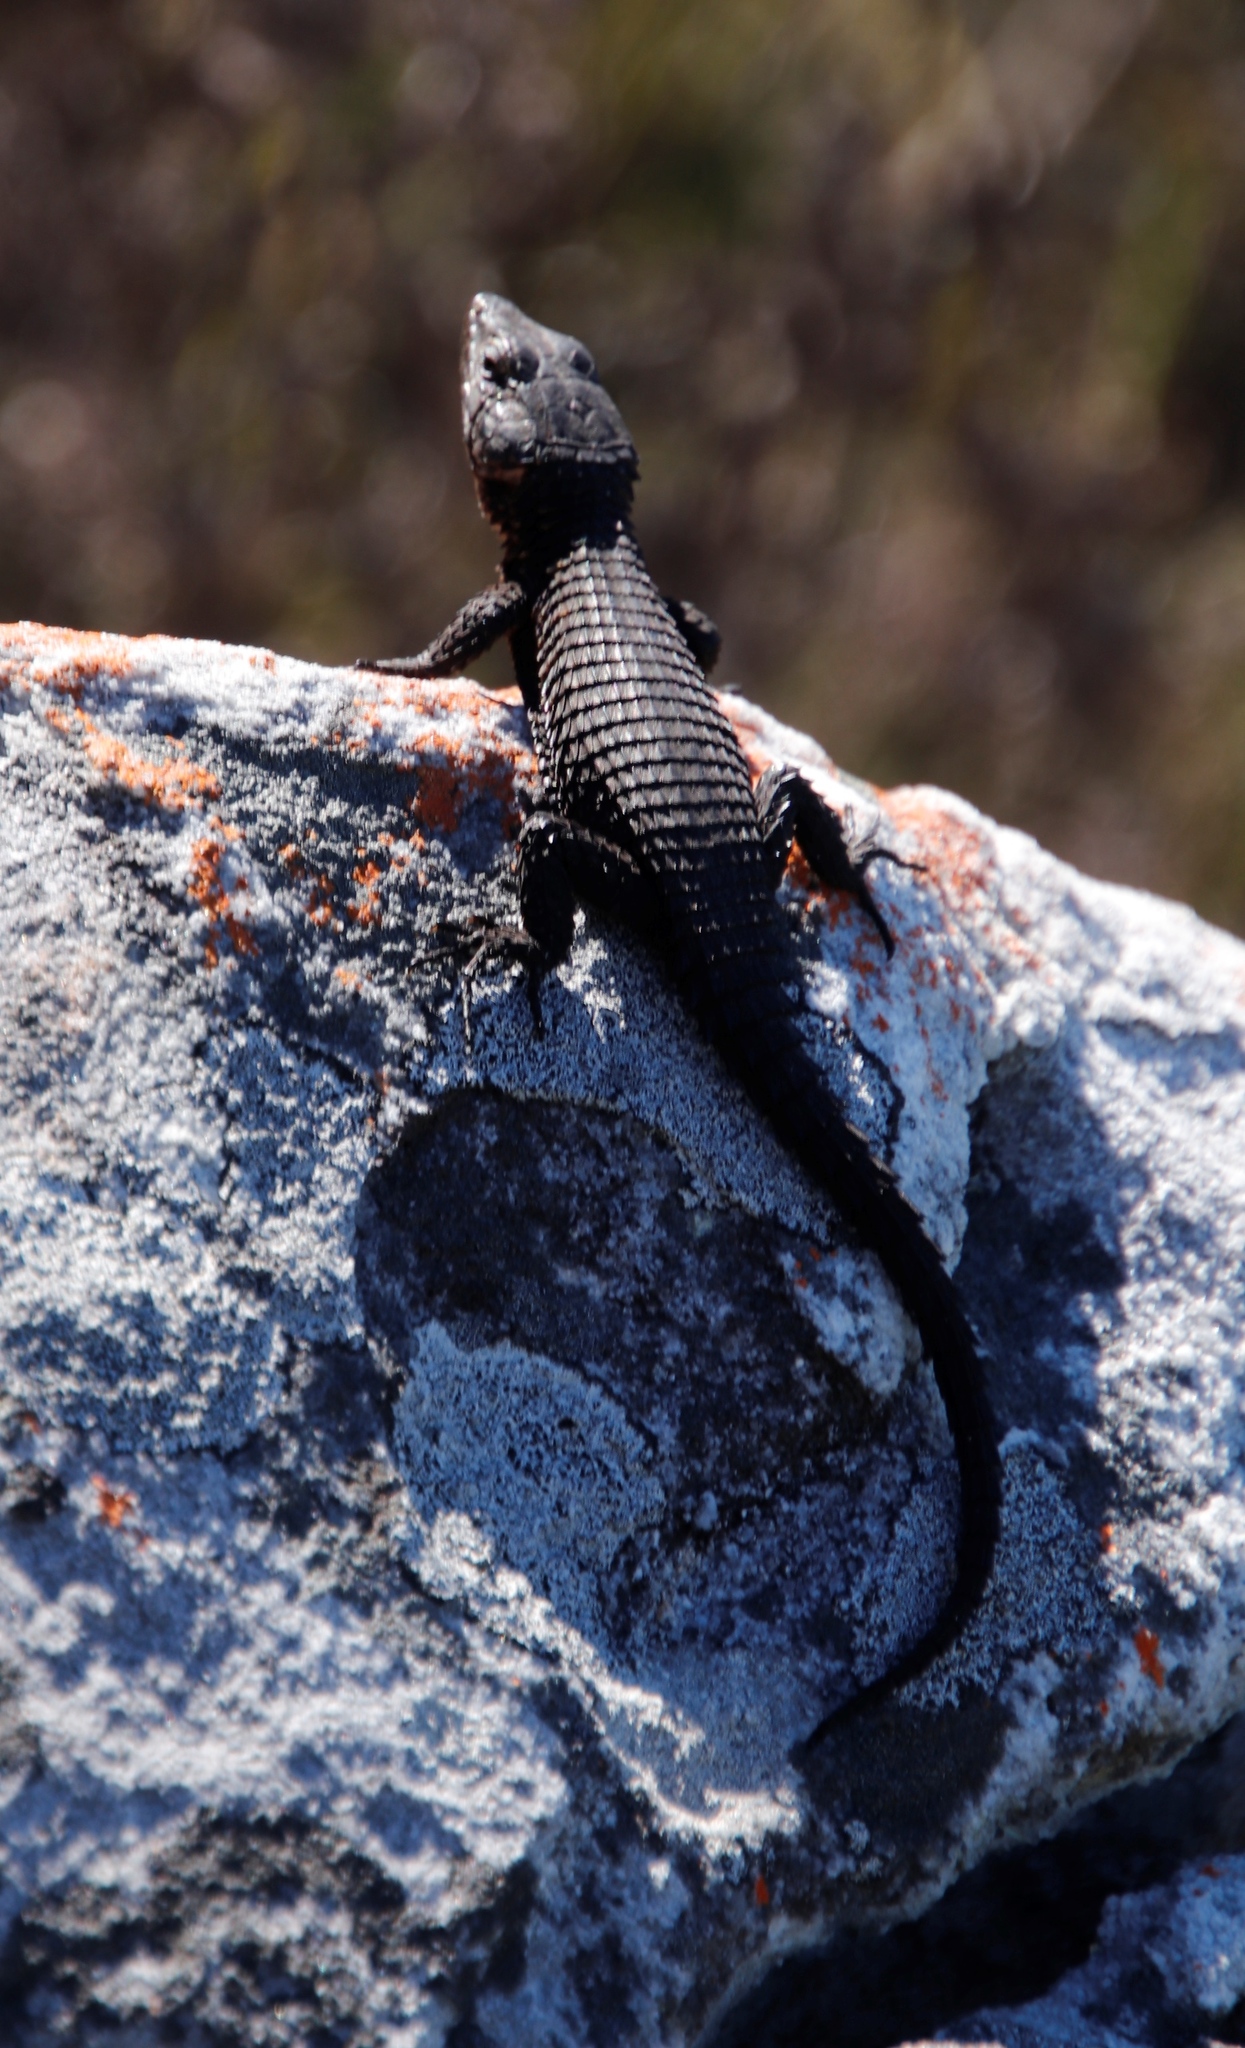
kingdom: Animalia
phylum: Chordata
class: Squamata
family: Cordylidae
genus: Cordylus
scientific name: Cordylus niger
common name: Black girdled lizard
